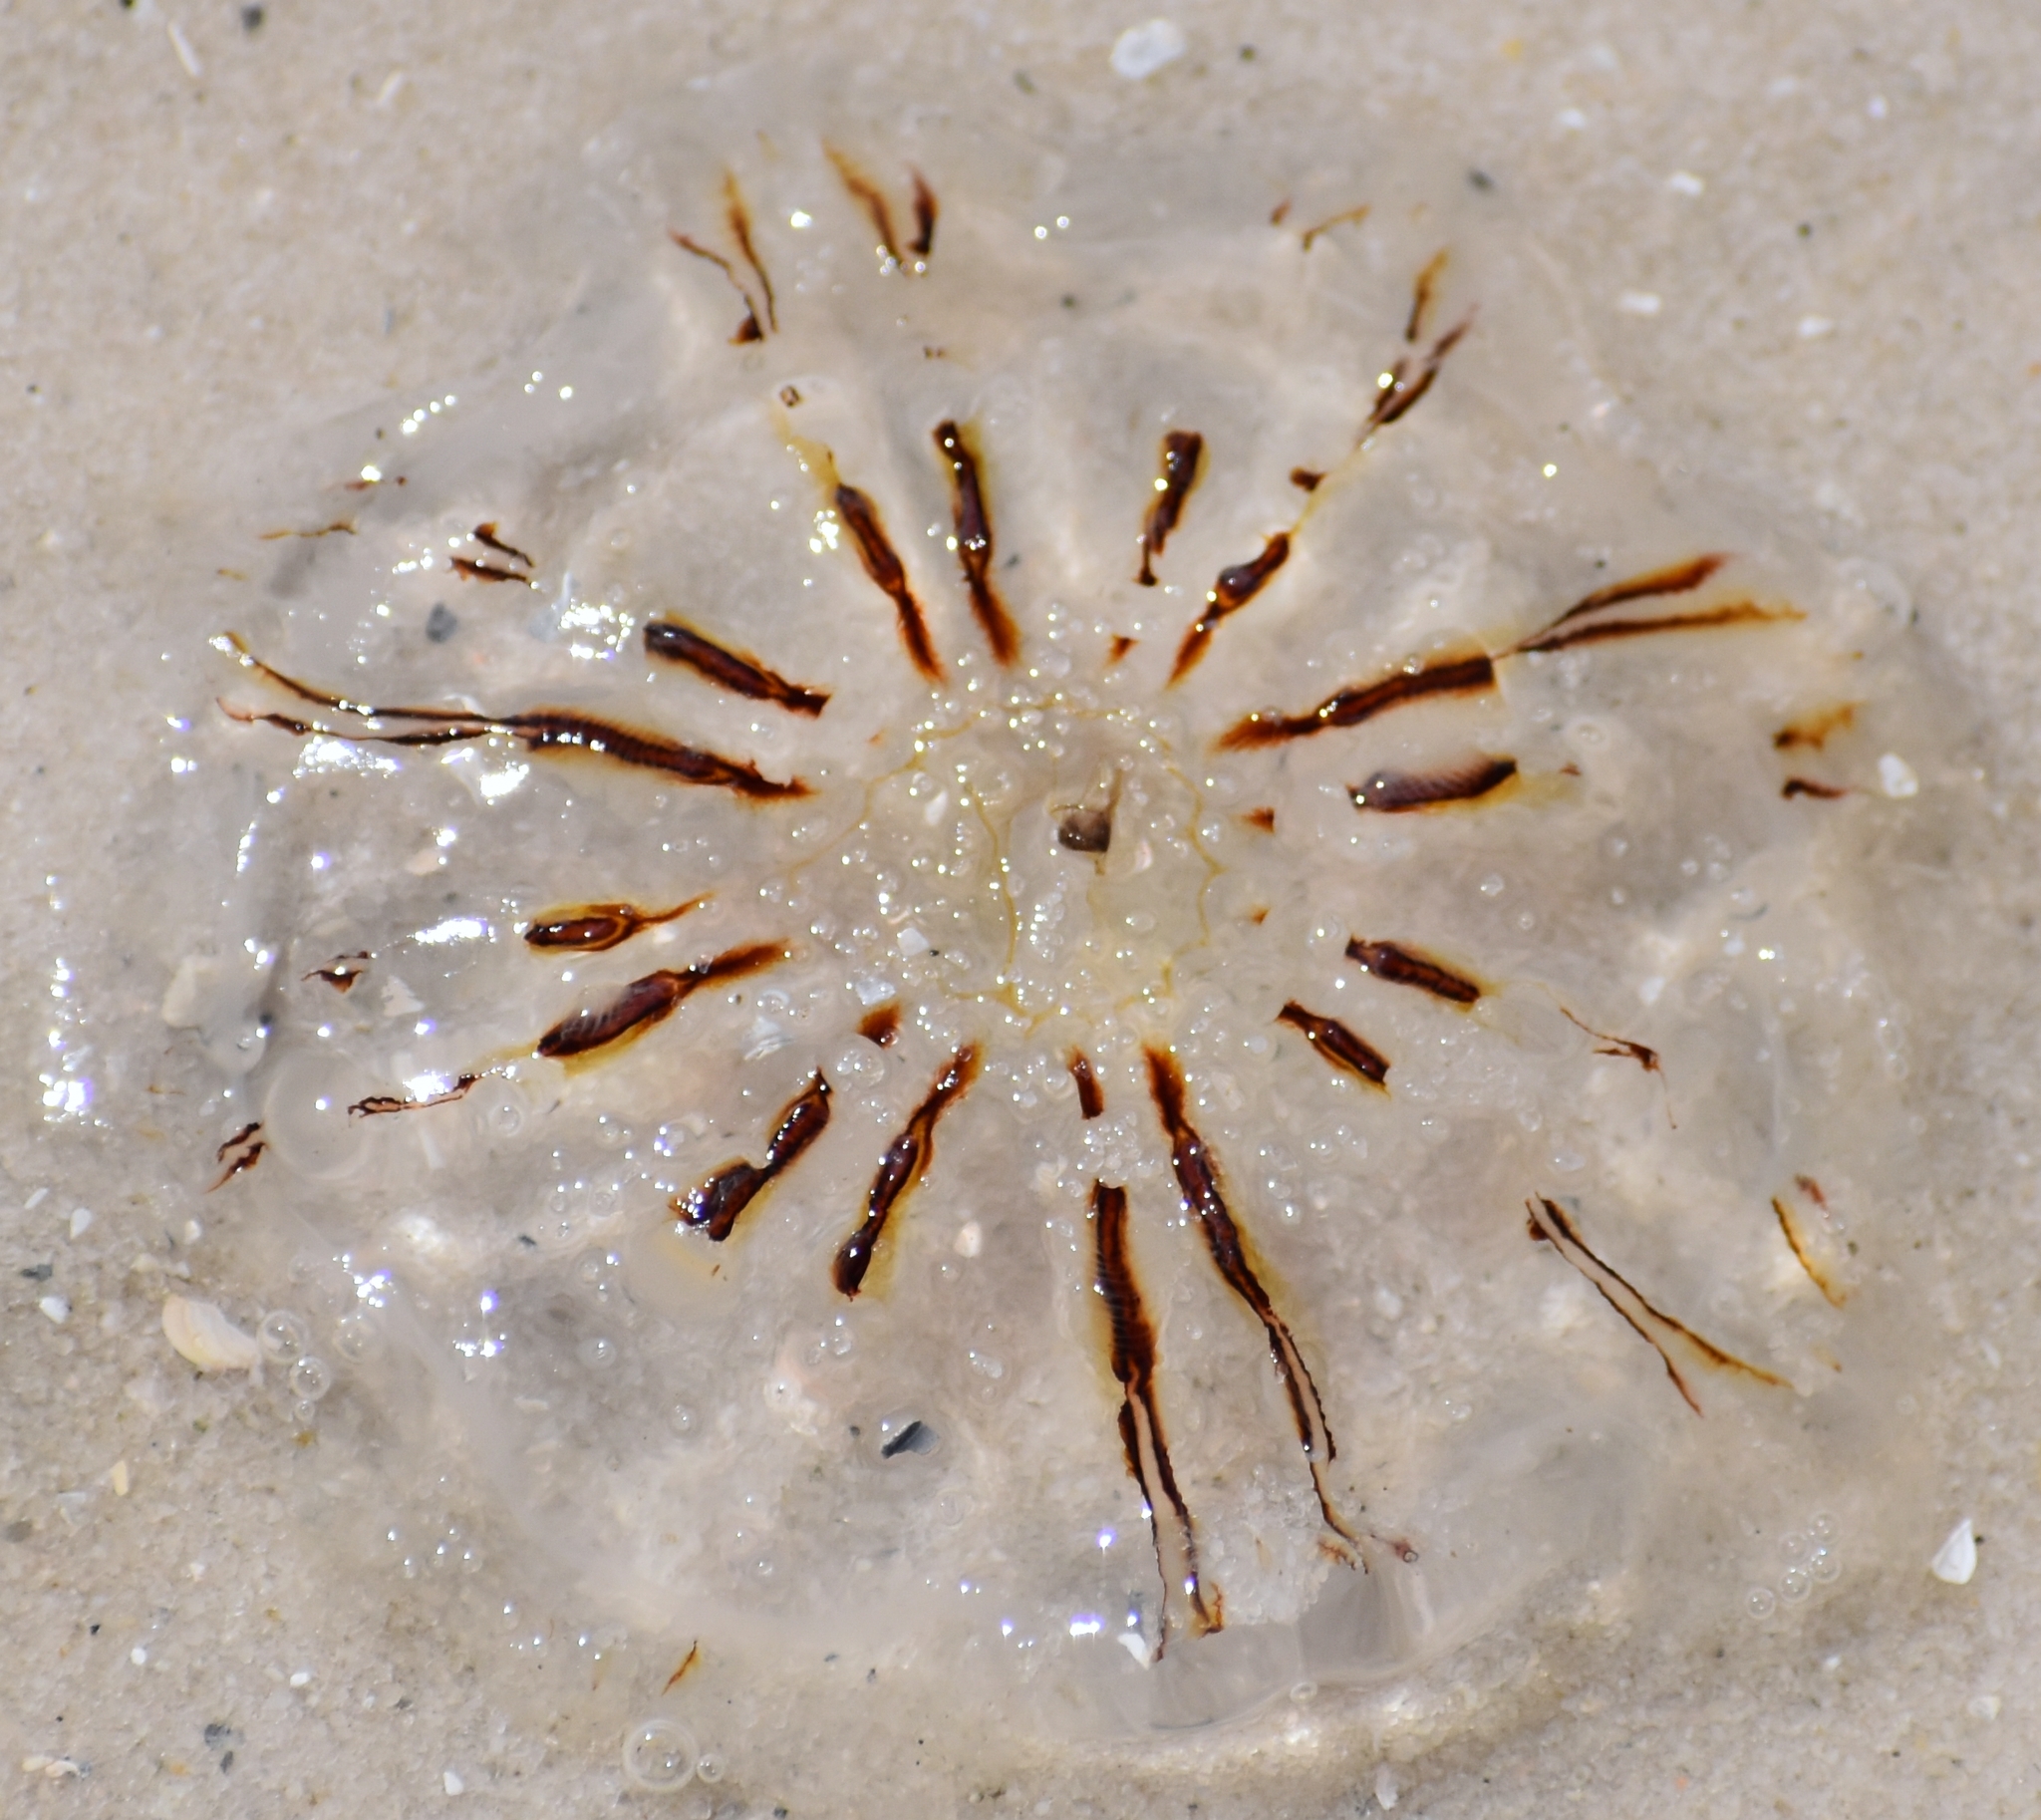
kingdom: Animalia
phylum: Cnidaria
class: Scyphozoa
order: Semaeostomeae
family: Cyaneidae
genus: Cyanea
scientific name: Cyanea versicolor
